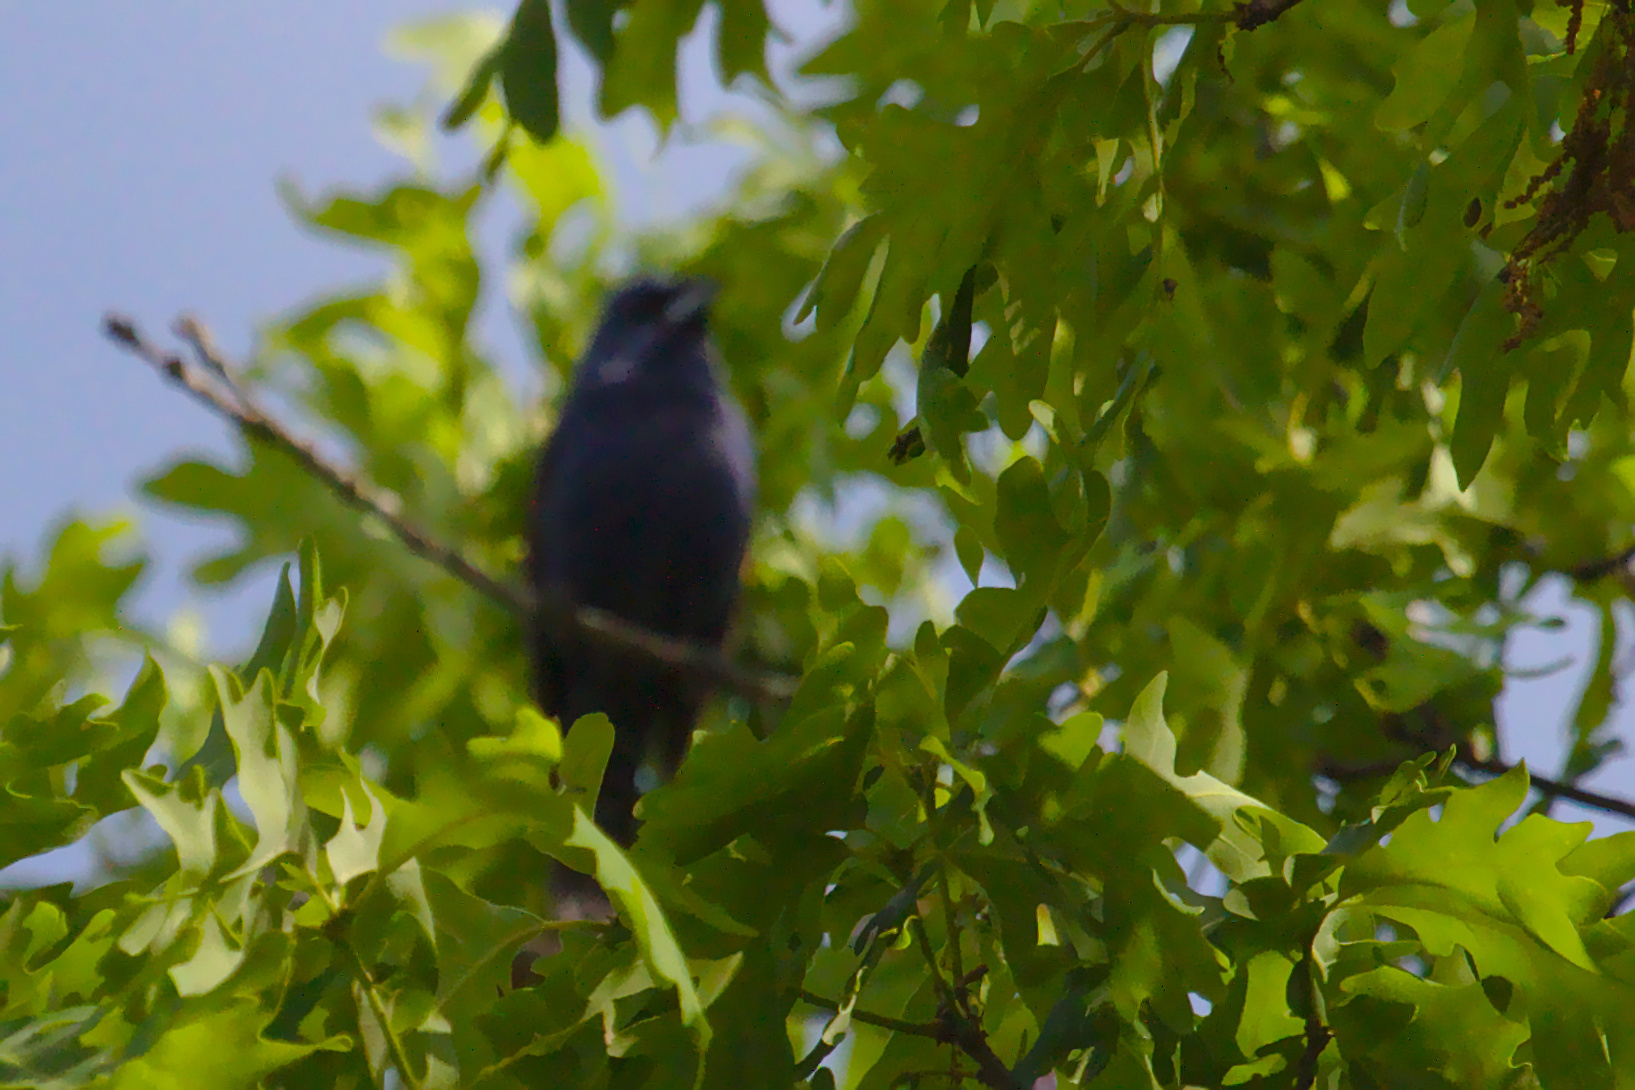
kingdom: Animalia
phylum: Chordata
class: Aves
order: Passeriformes
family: Cardinalidae
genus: Passerina
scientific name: Passerina caerulea
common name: Blue grosbeak
